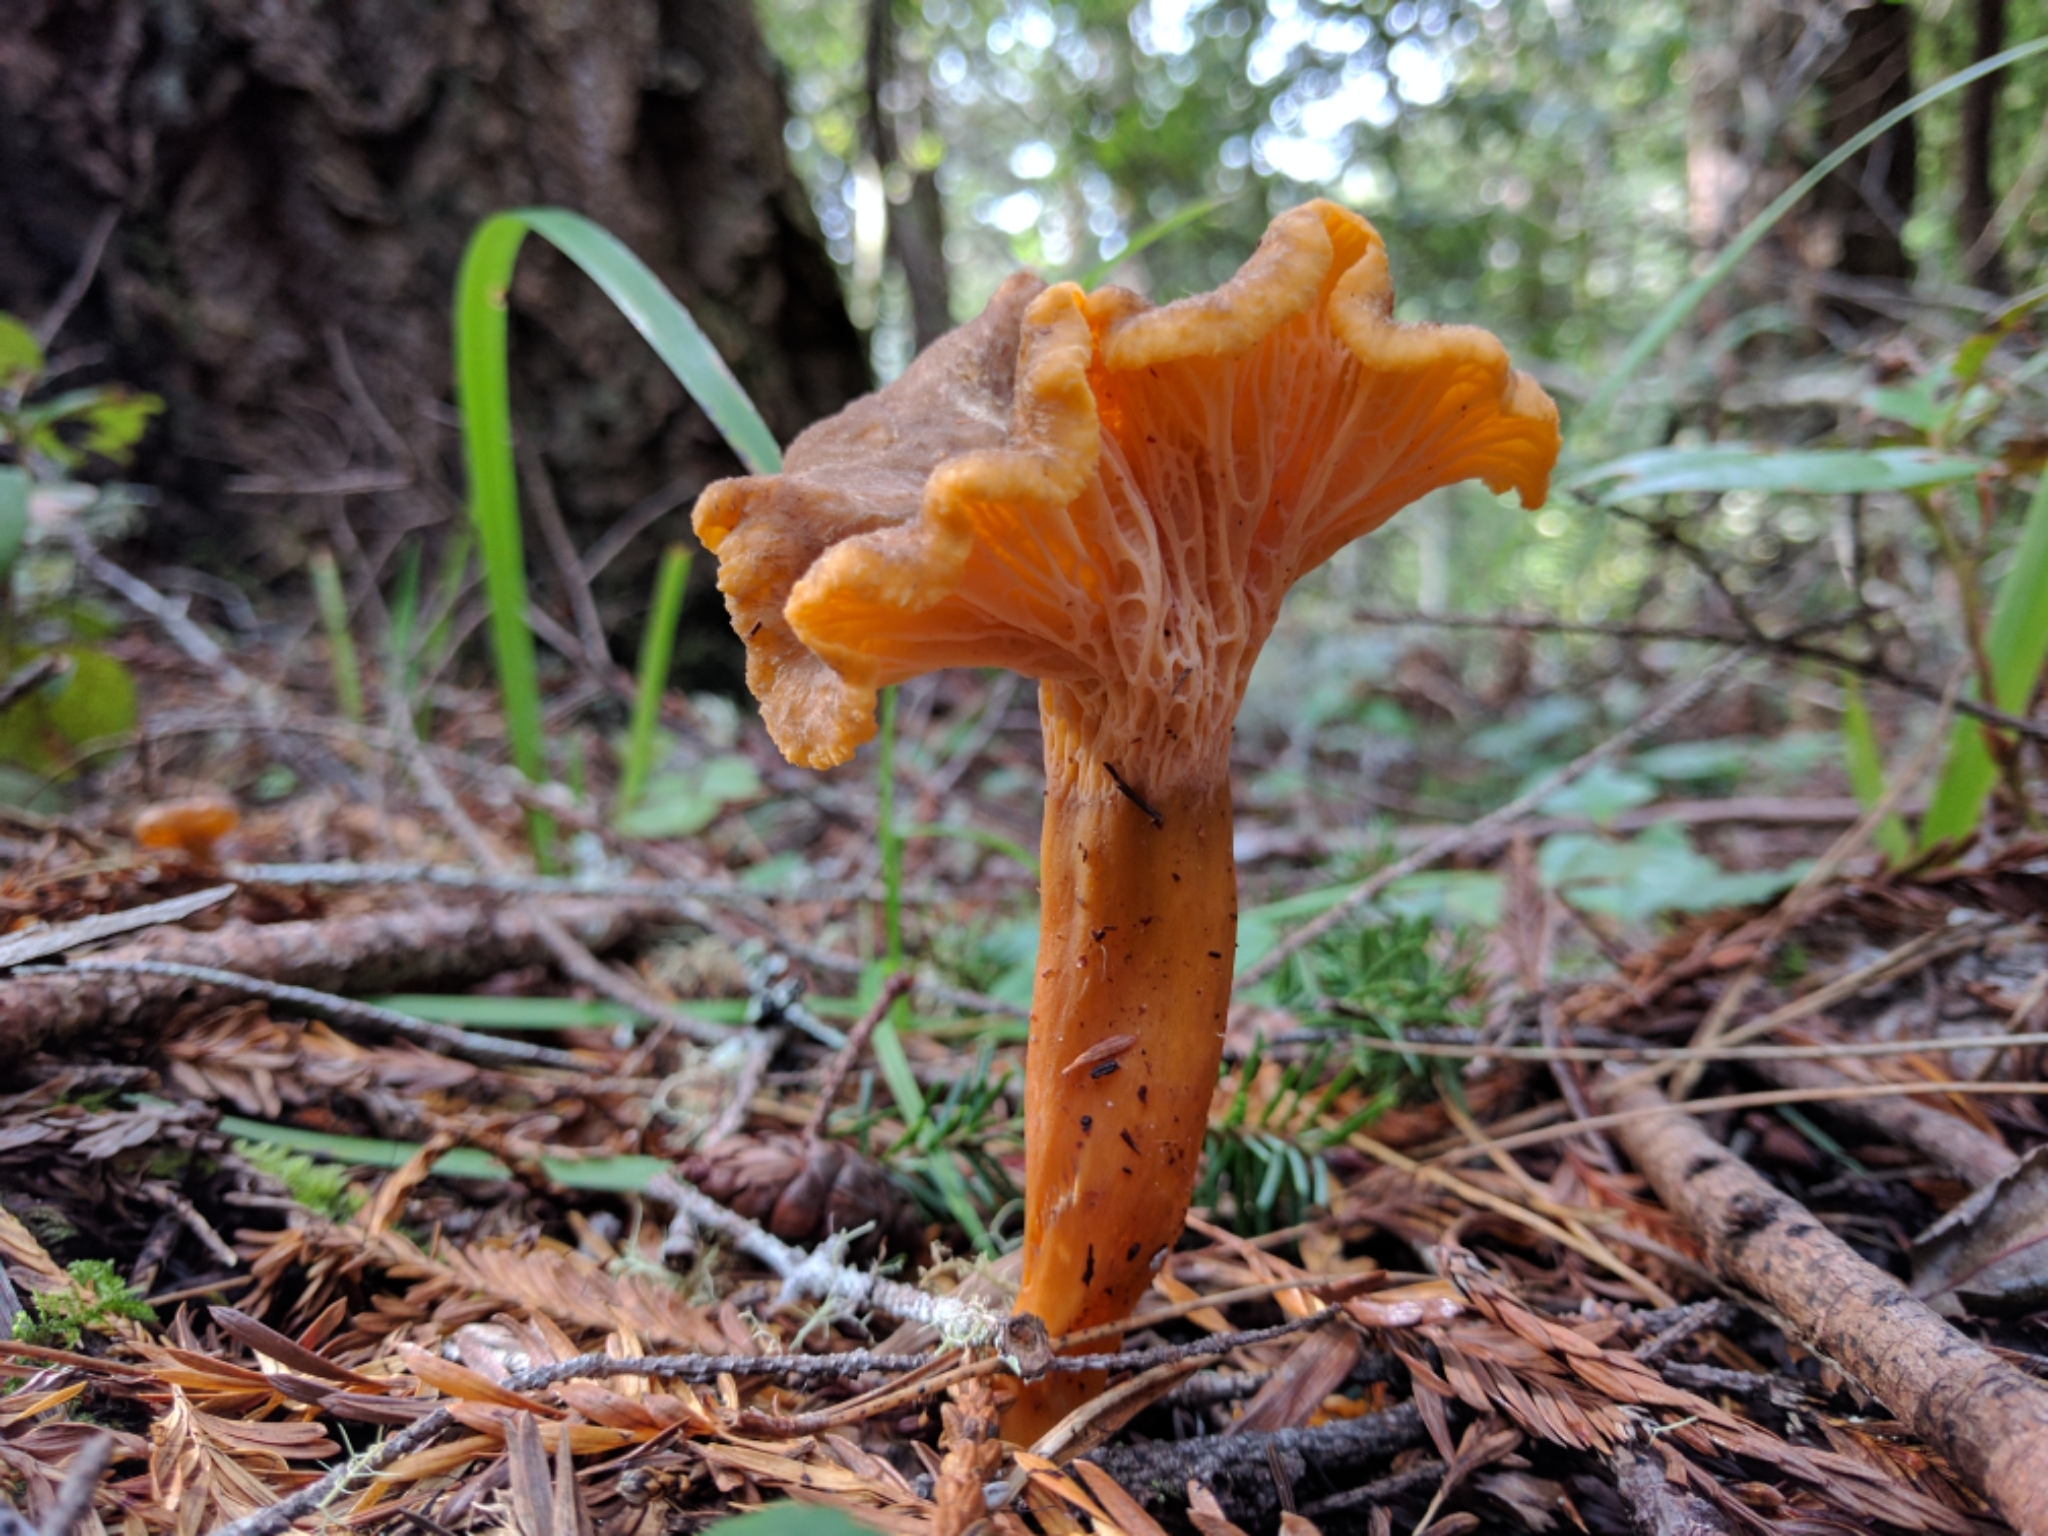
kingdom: Fungi
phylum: Basidiomycota
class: Agaricomycetes
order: Cantharellales
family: Hydnaceae
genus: Craterellus
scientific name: Craterellus tubaeformis
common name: Yellowfoot
